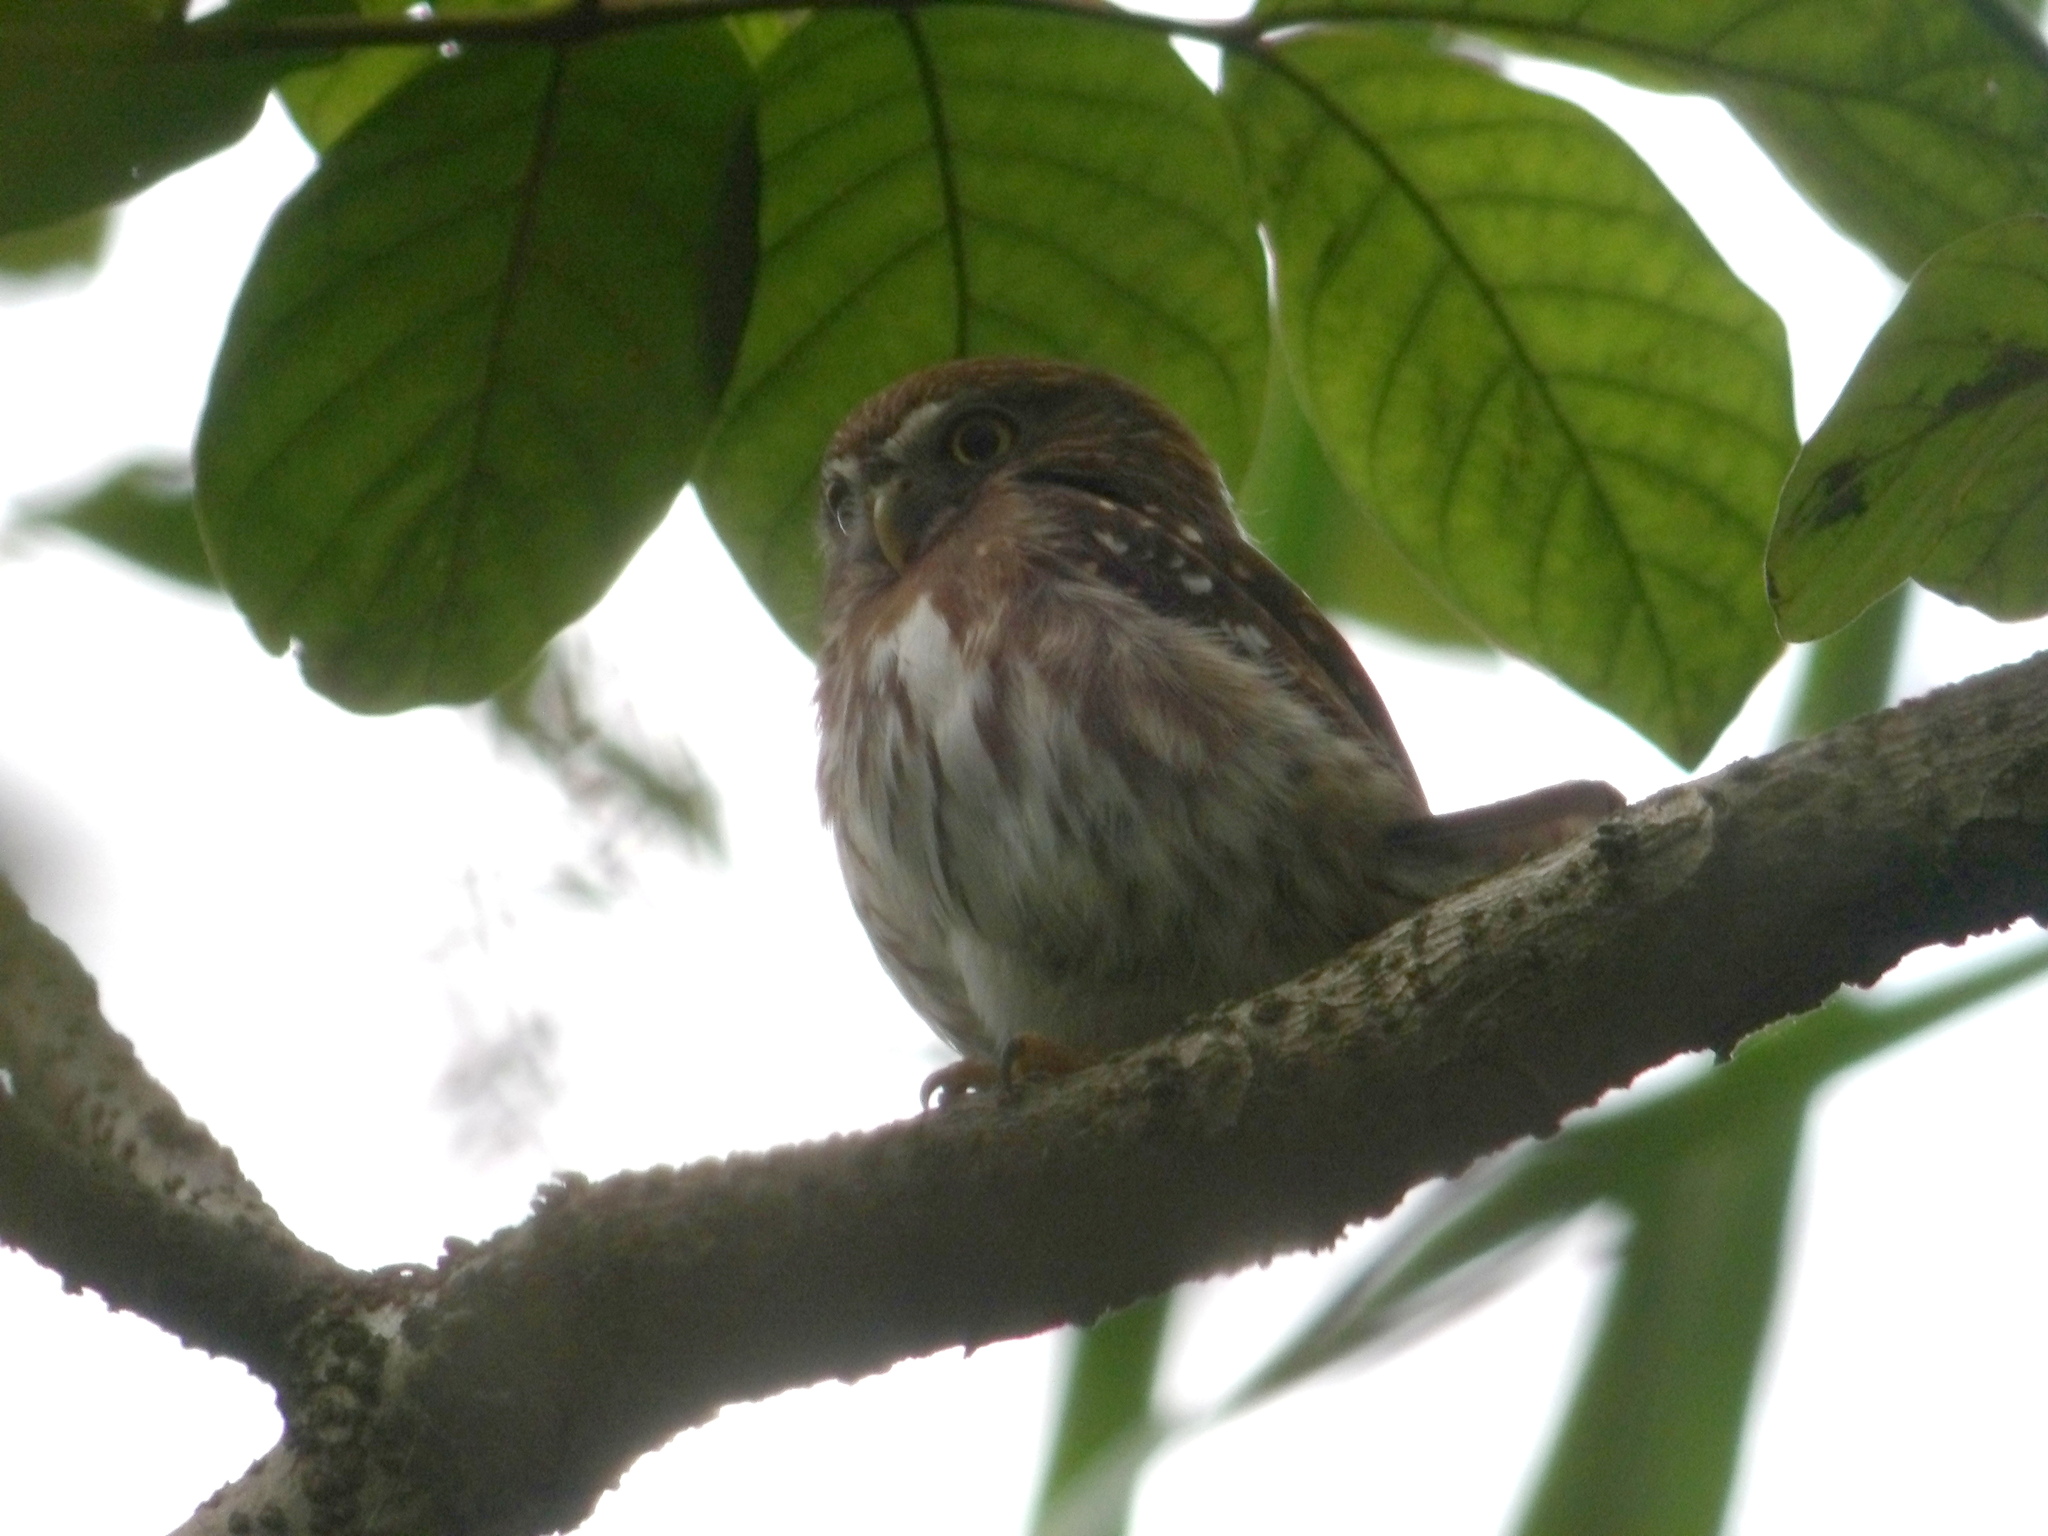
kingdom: Animalia
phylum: Chordata
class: Aves
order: Strigiformes
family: Strigidae
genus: Glaucidium
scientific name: Glaucidium brasilianum
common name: Ferruginous pygmy-owl
